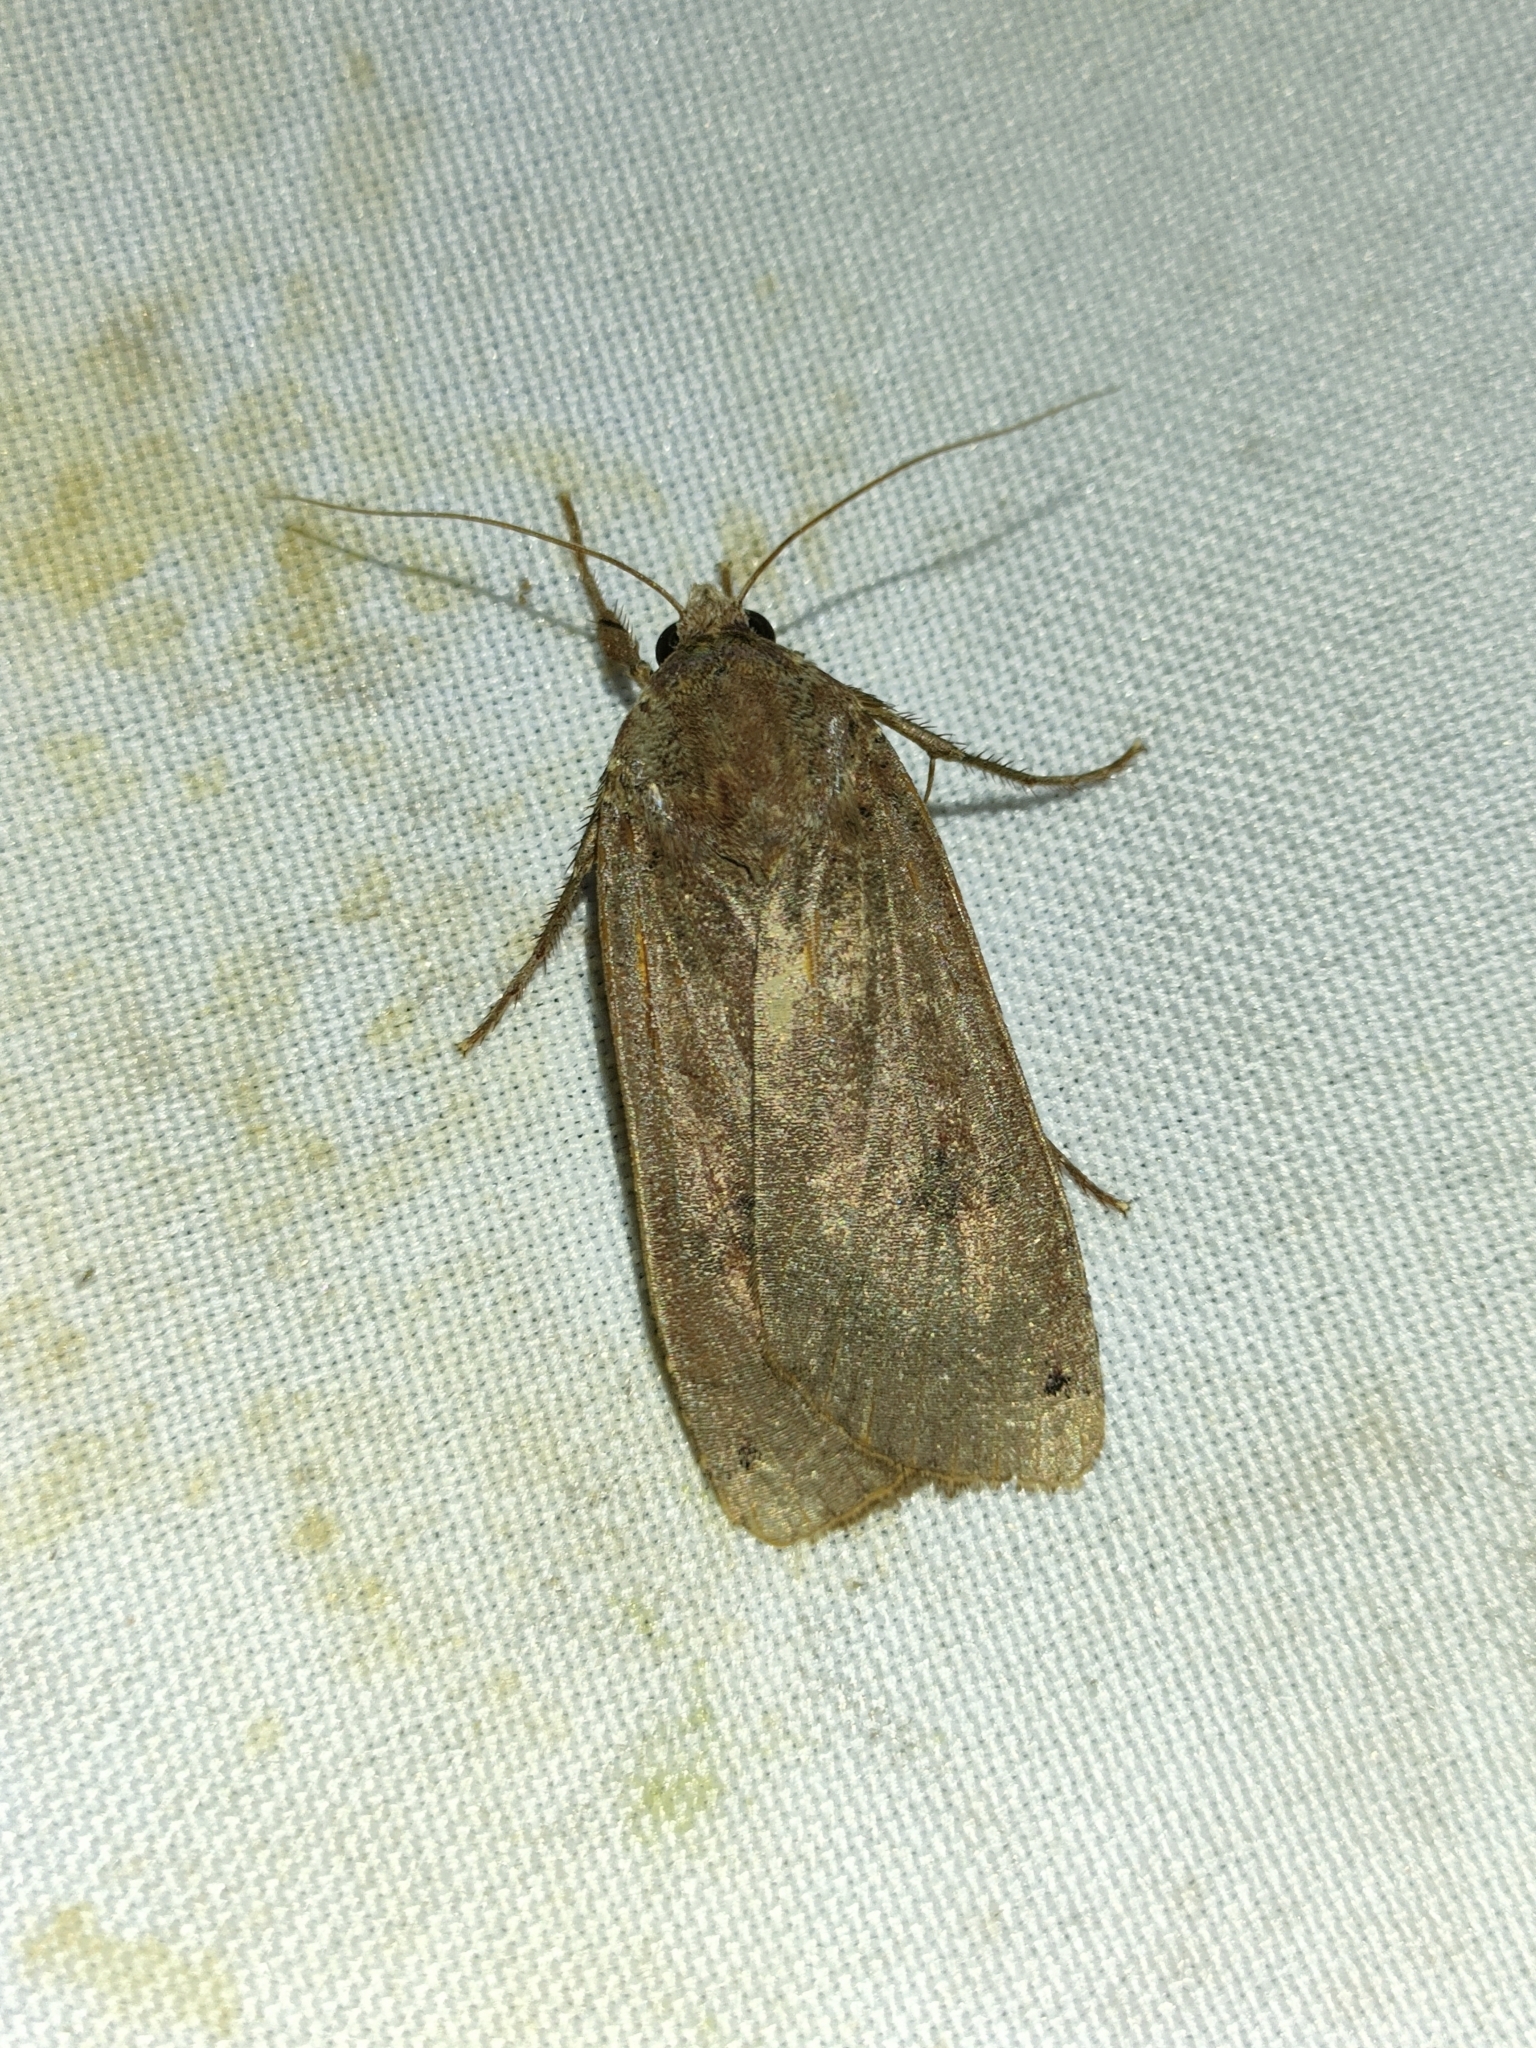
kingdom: Animalia
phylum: Arthropoda
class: Insecta
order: Lepidoptera
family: Noctuidae
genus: Noctua
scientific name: Noctua pronuba
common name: Large yellow underwing
